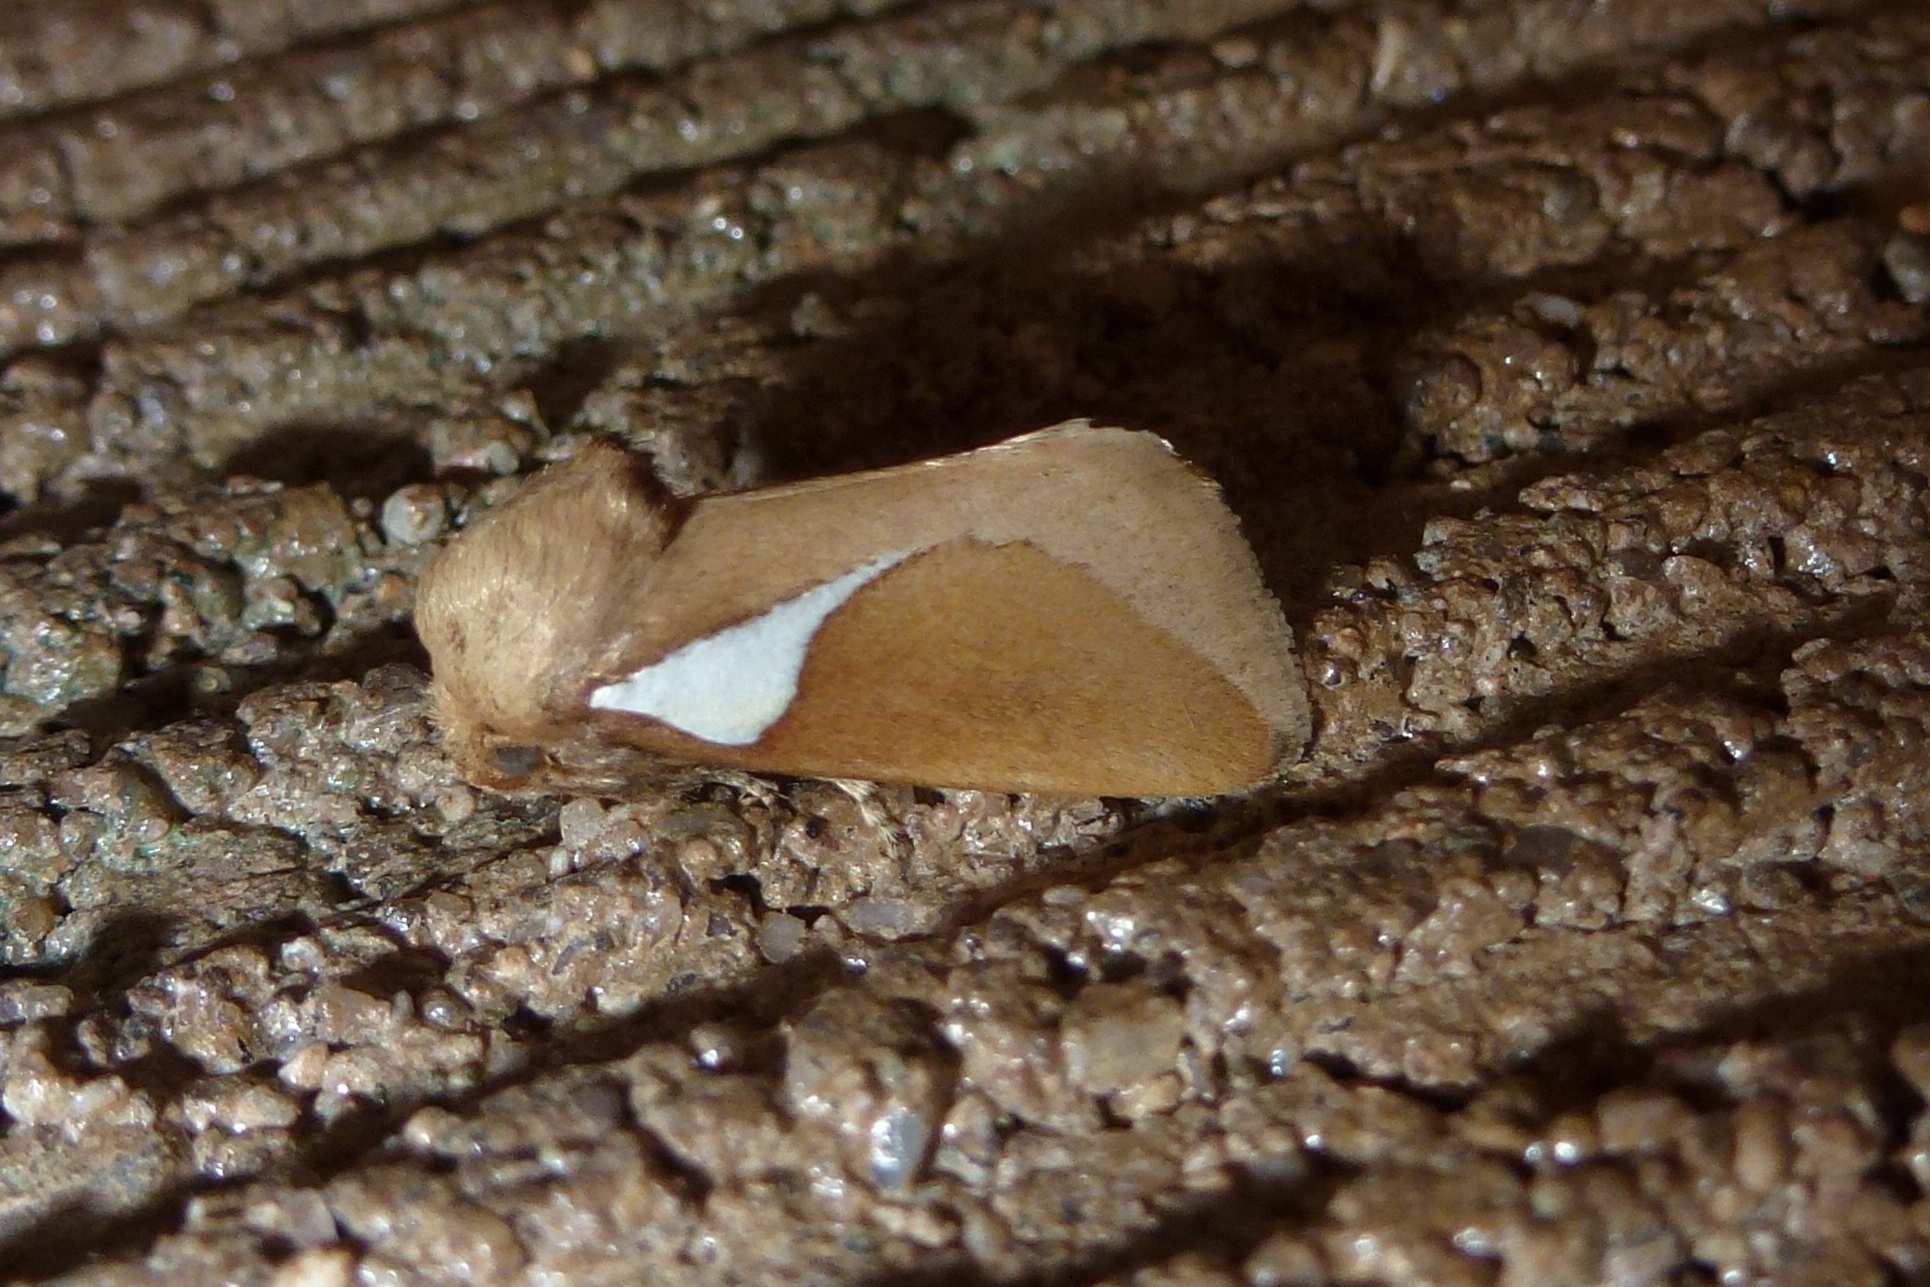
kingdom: Animalia
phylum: Arthropoda
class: Insecta
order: Lepidoptera
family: Limacodidae
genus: Prolimacodes
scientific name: Prolimacodes trigona
